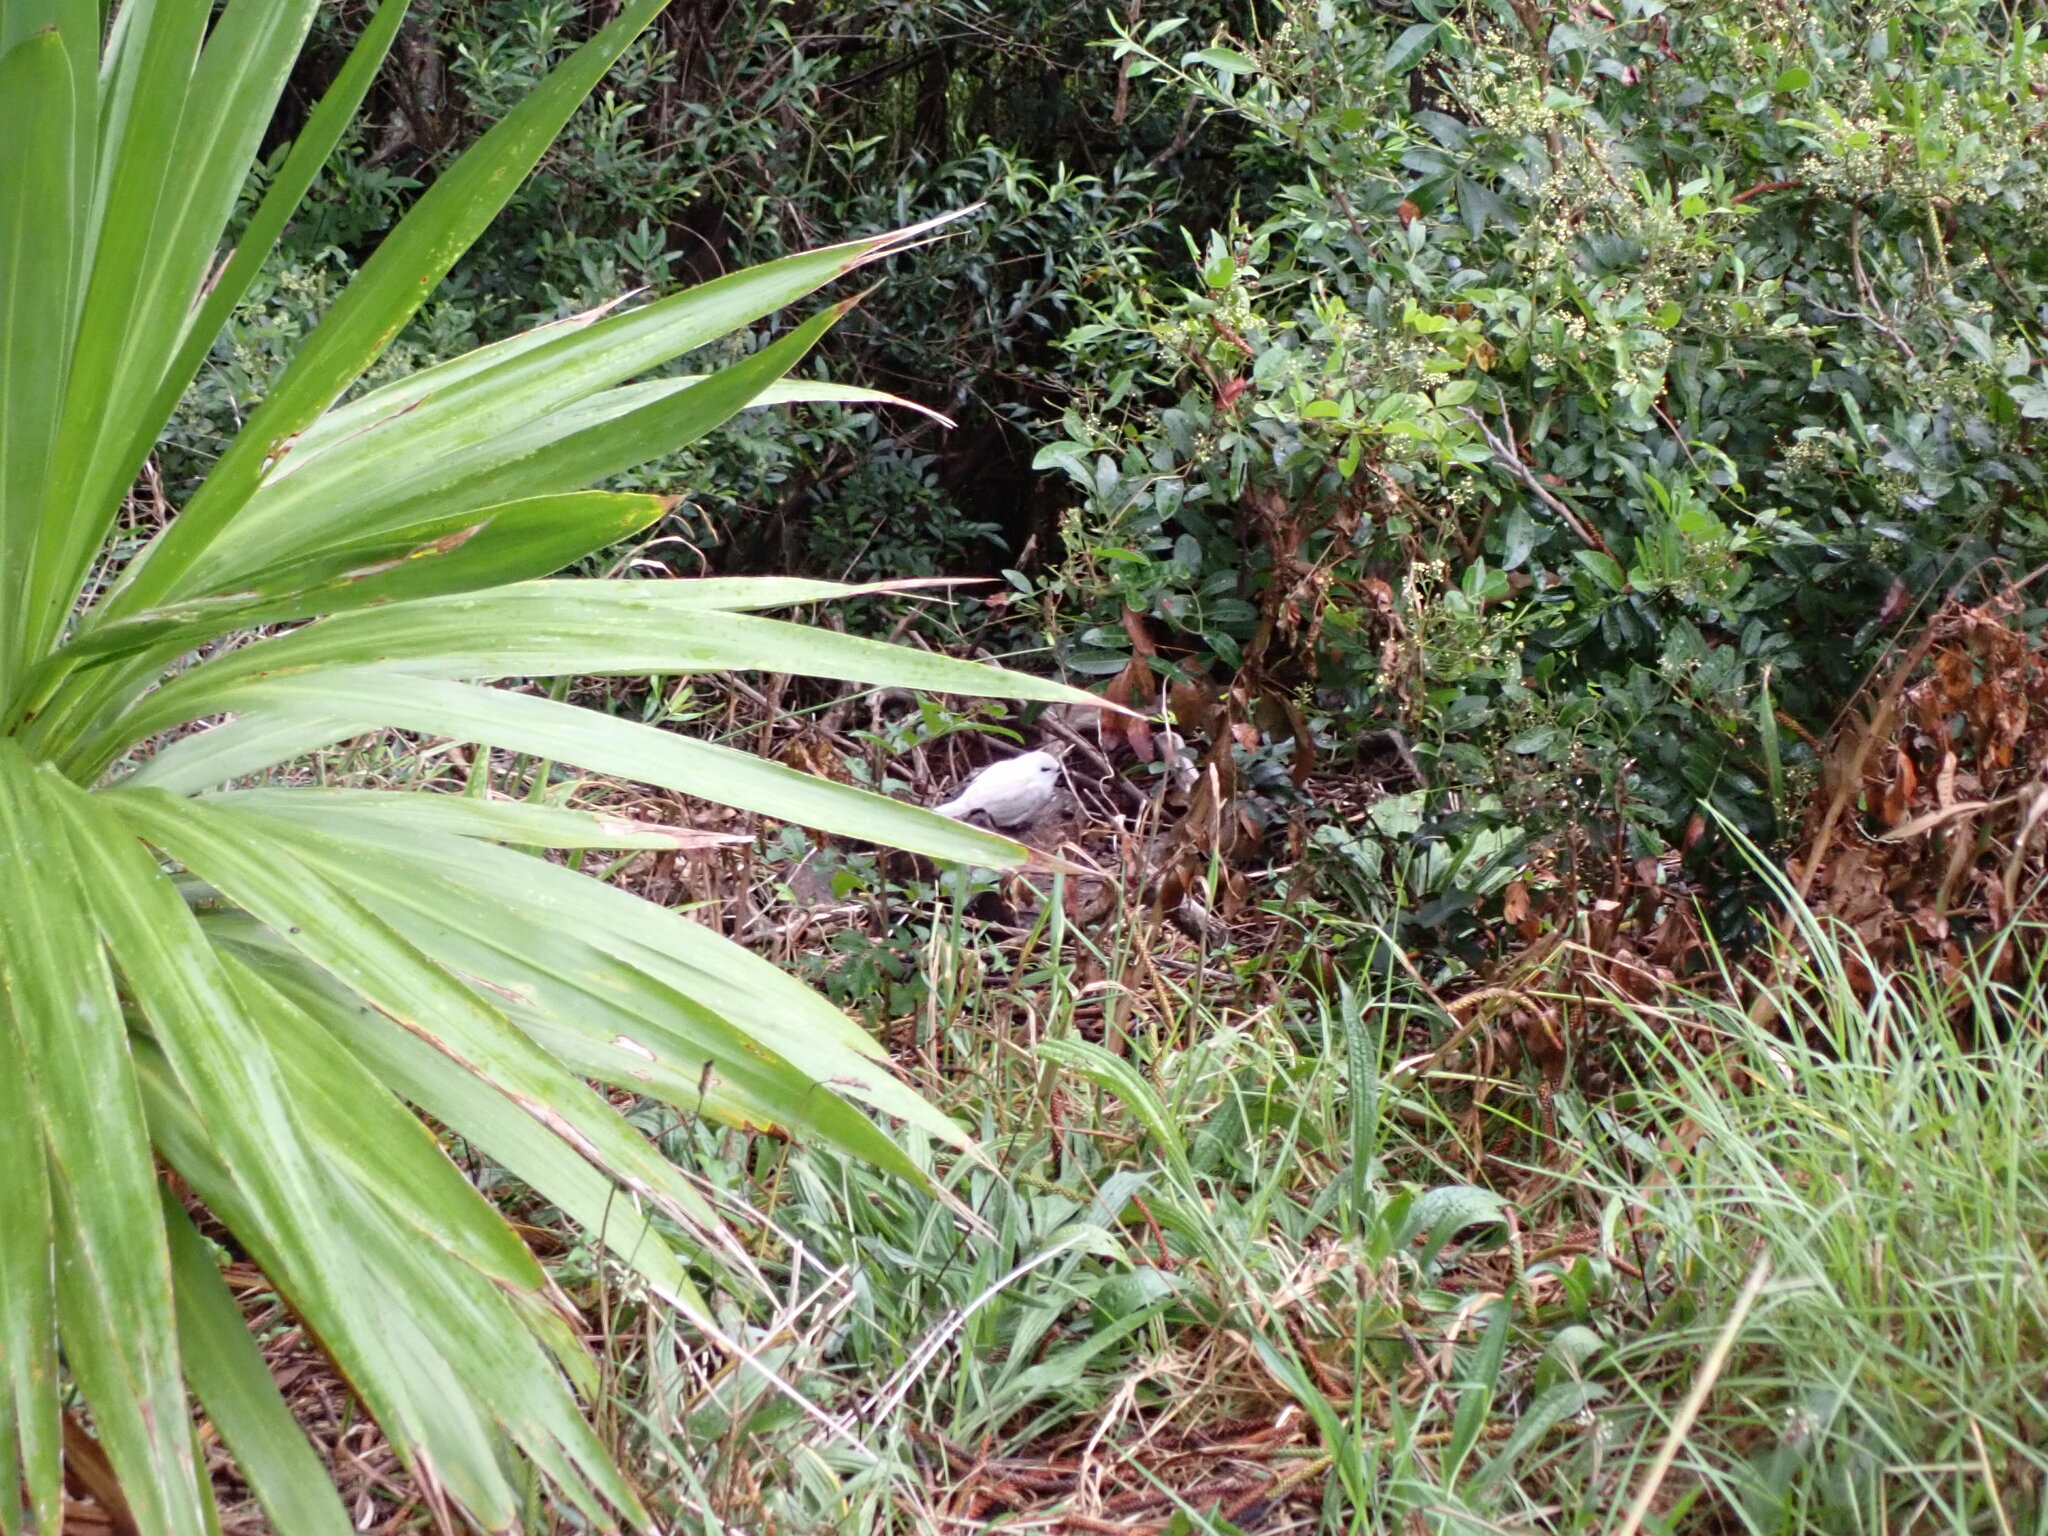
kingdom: Animalia
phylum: Chordata
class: Aves
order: Charadriiformes
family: Laridae
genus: Gygis
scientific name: Gygis alba
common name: White tern
